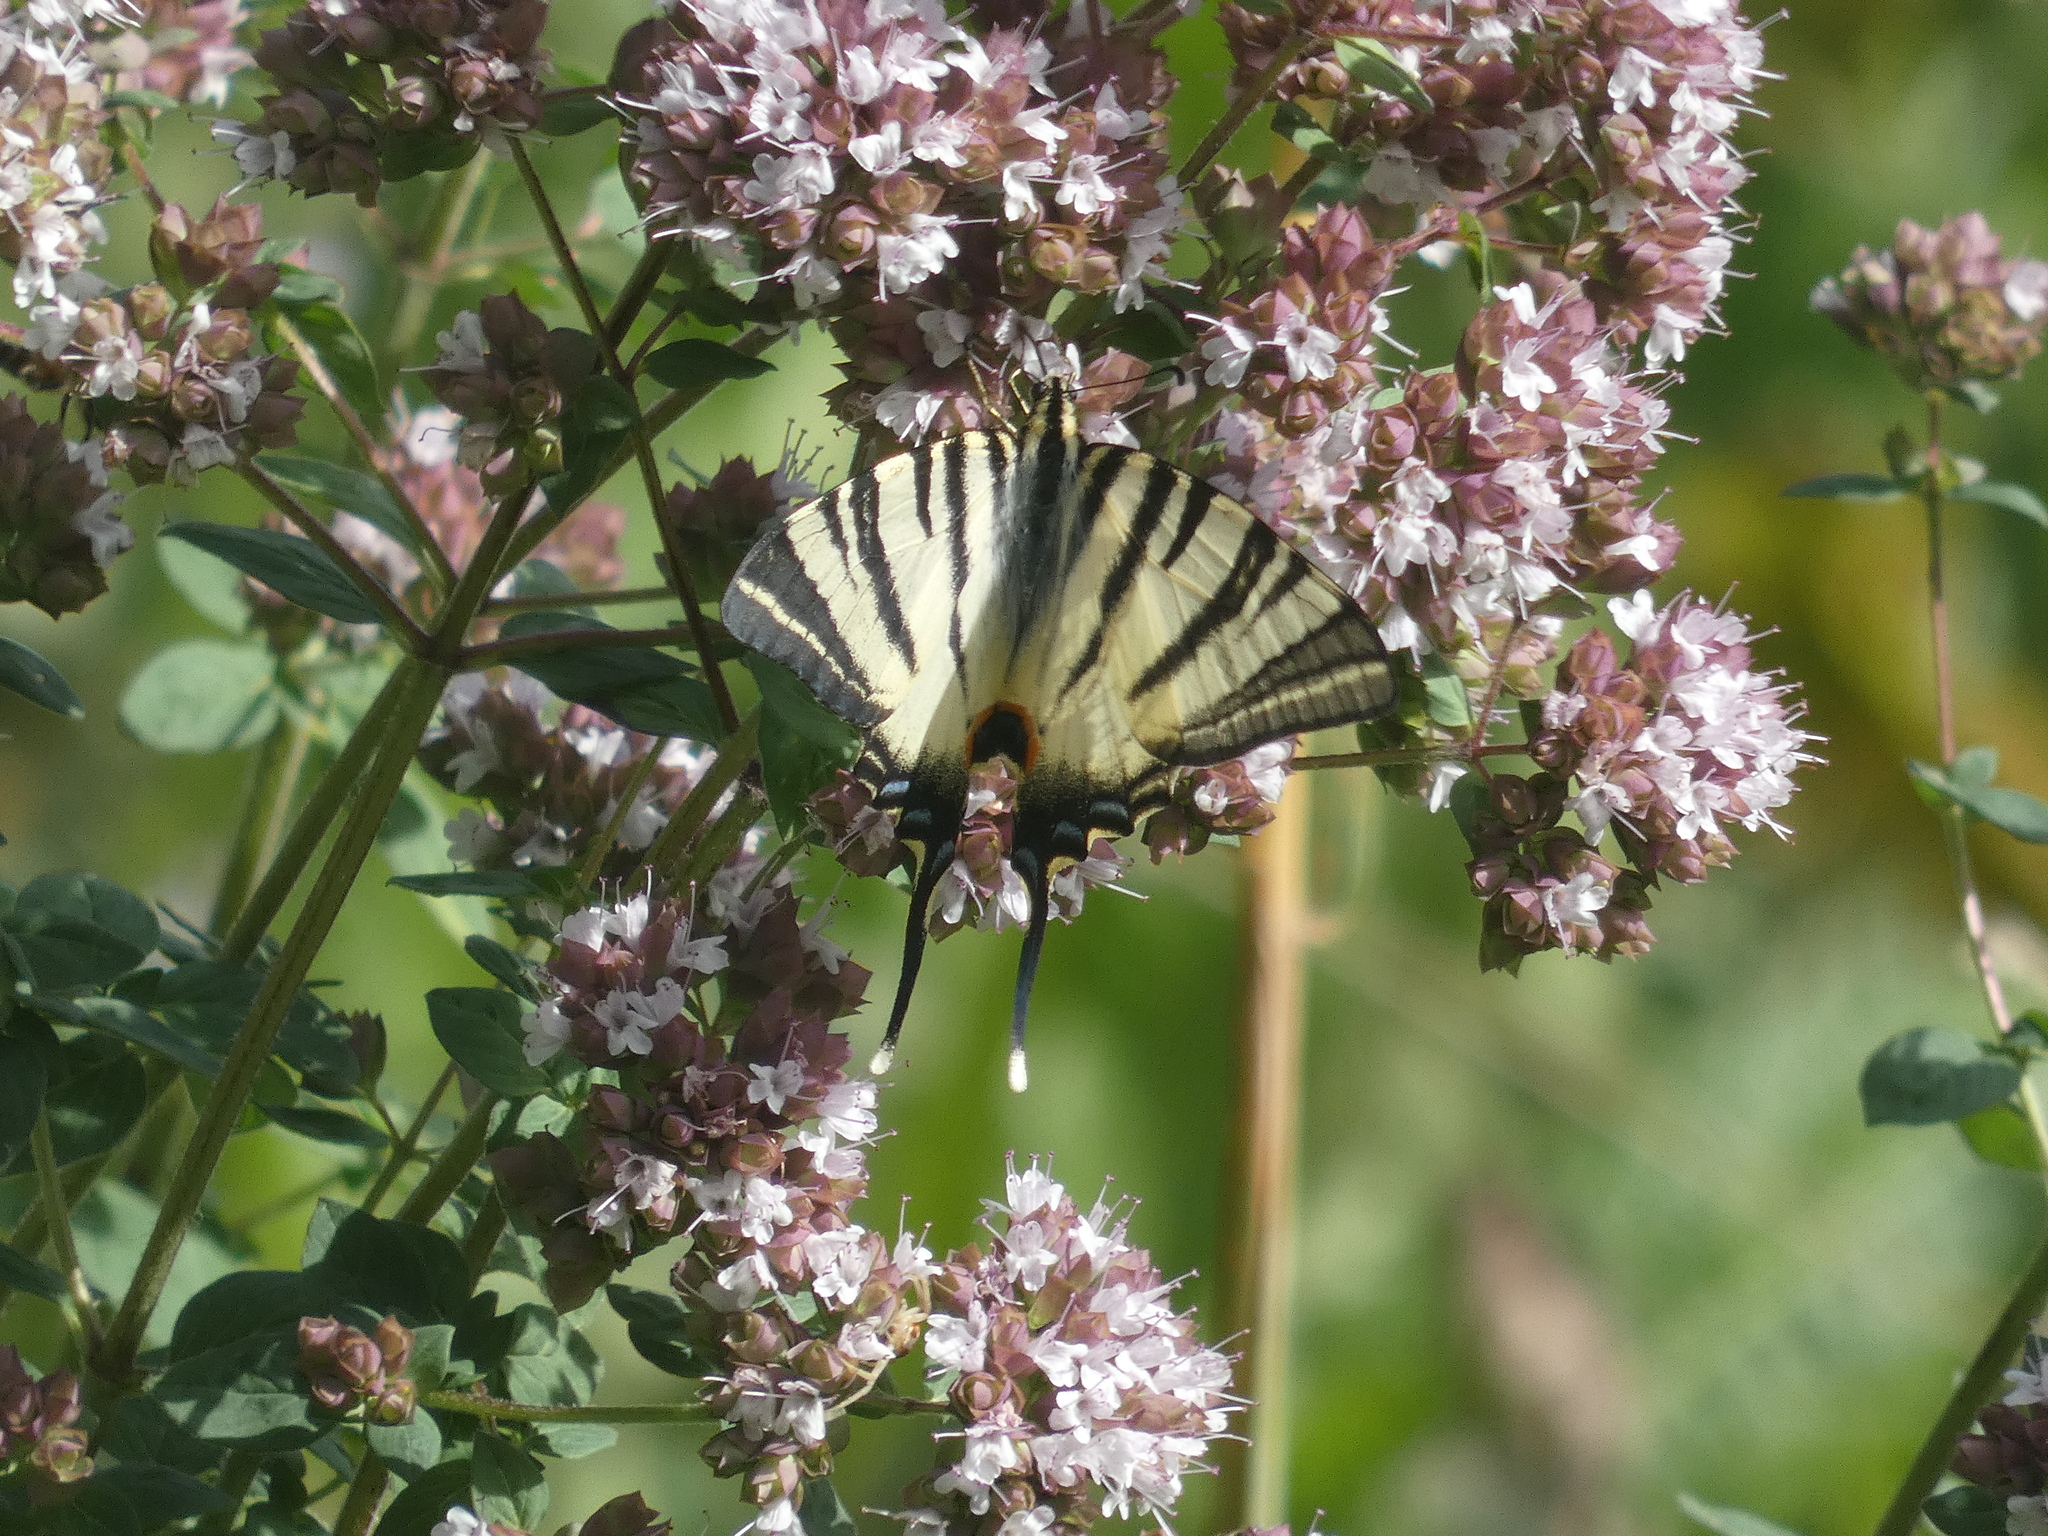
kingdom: Animalia
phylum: Arthropoda
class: Insecta
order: Lepidoptera
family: Papilionidae
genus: Iphiclides
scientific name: Iphiclides podalirius
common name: Scarce swallowtail
